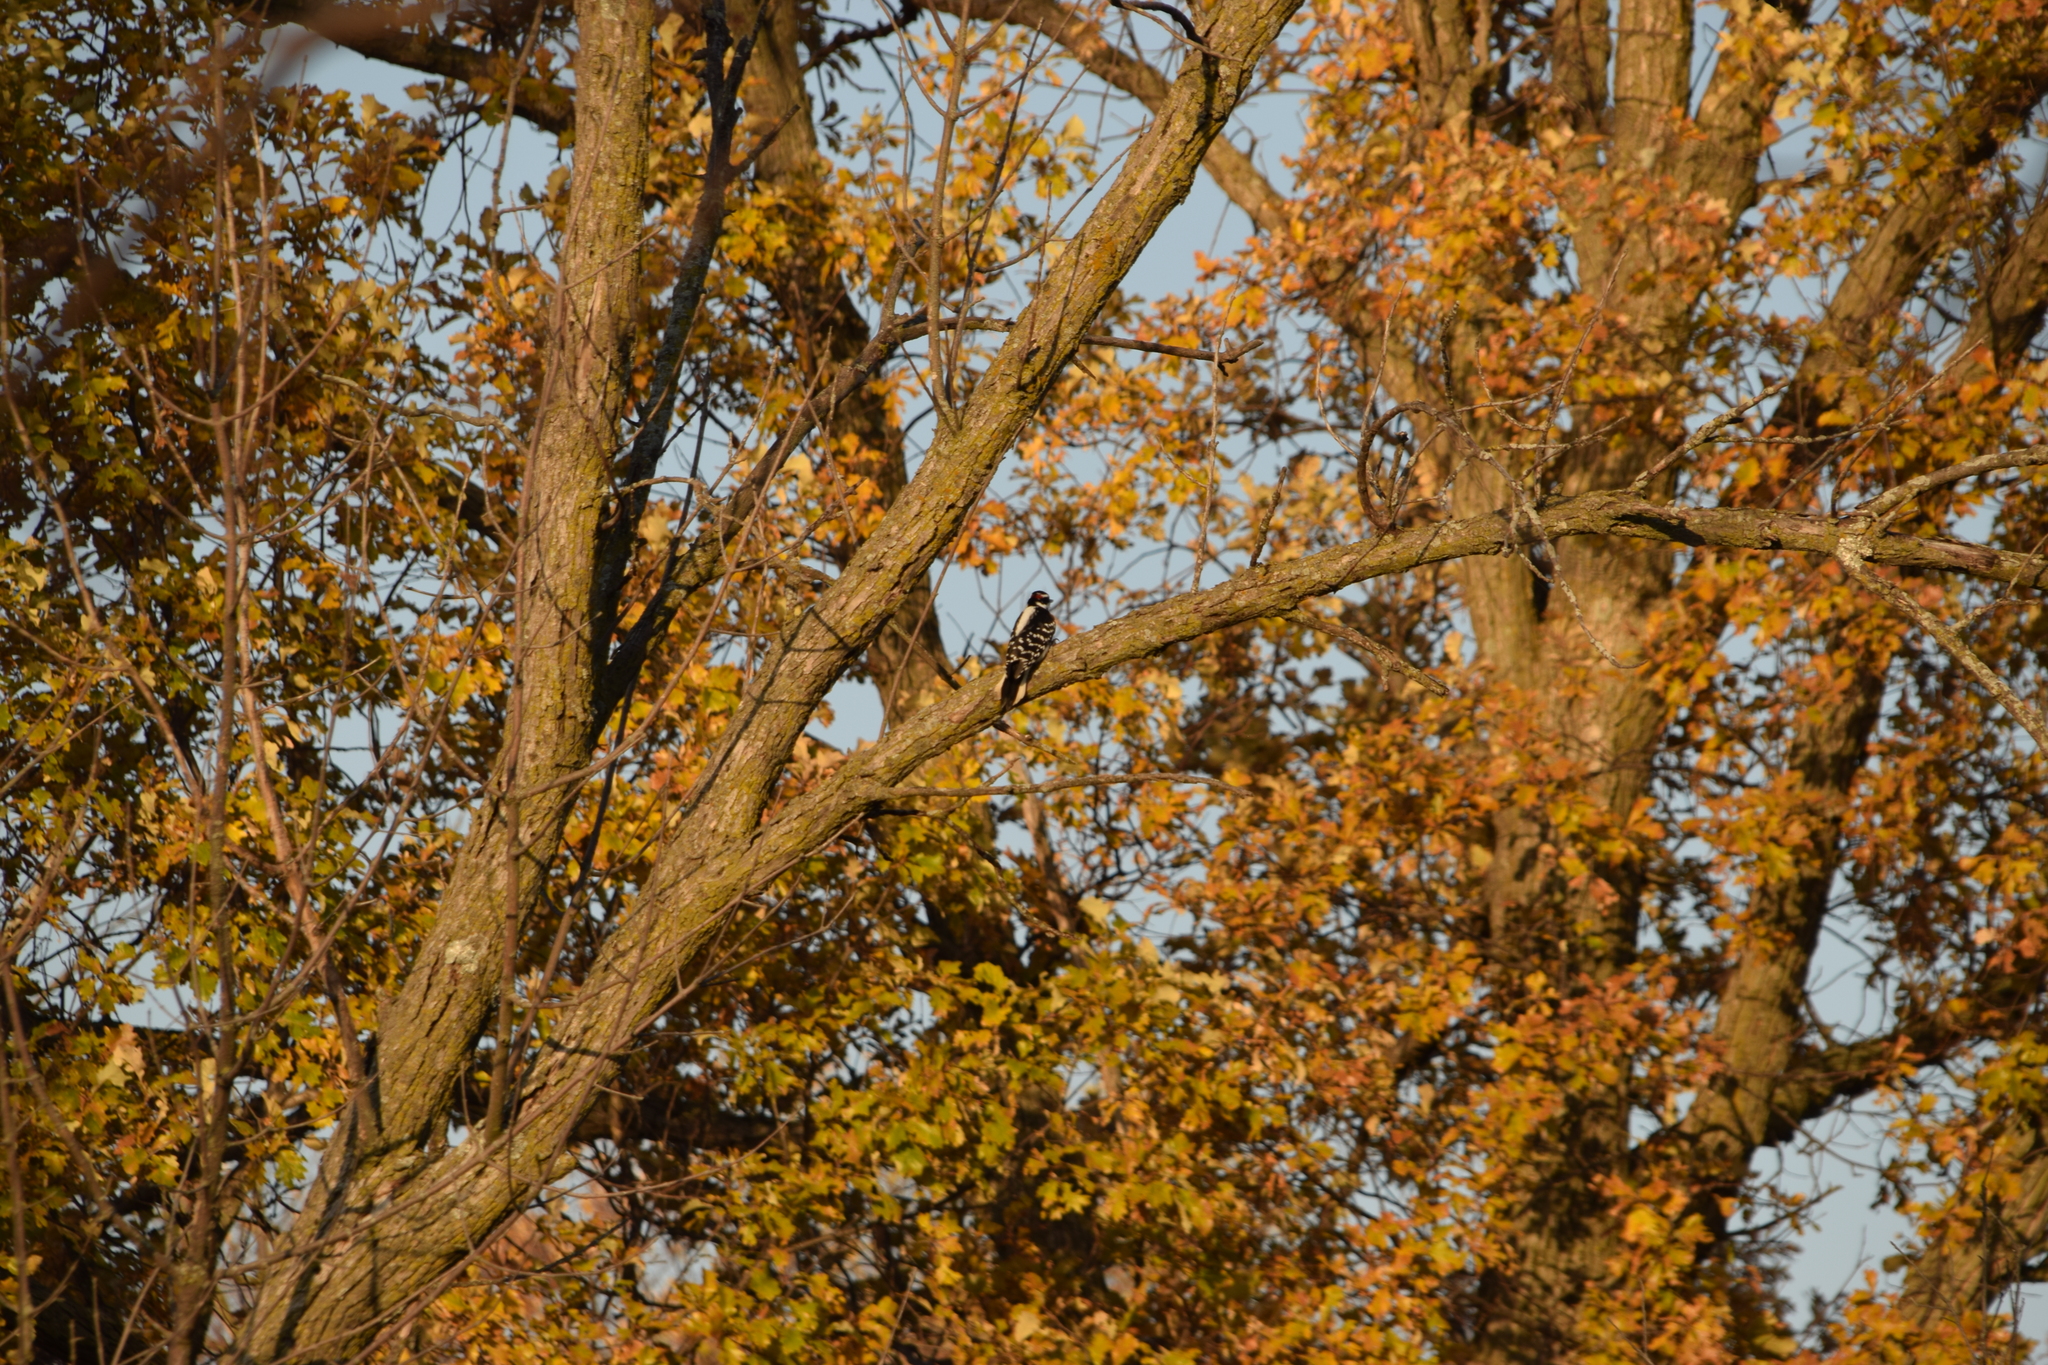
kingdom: Animalia
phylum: Chordata
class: Aves
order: Piciformes
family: Picidae
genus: Leuconotopicus
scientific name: Leuconotopicus villosus
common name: Hairy woodpecker
